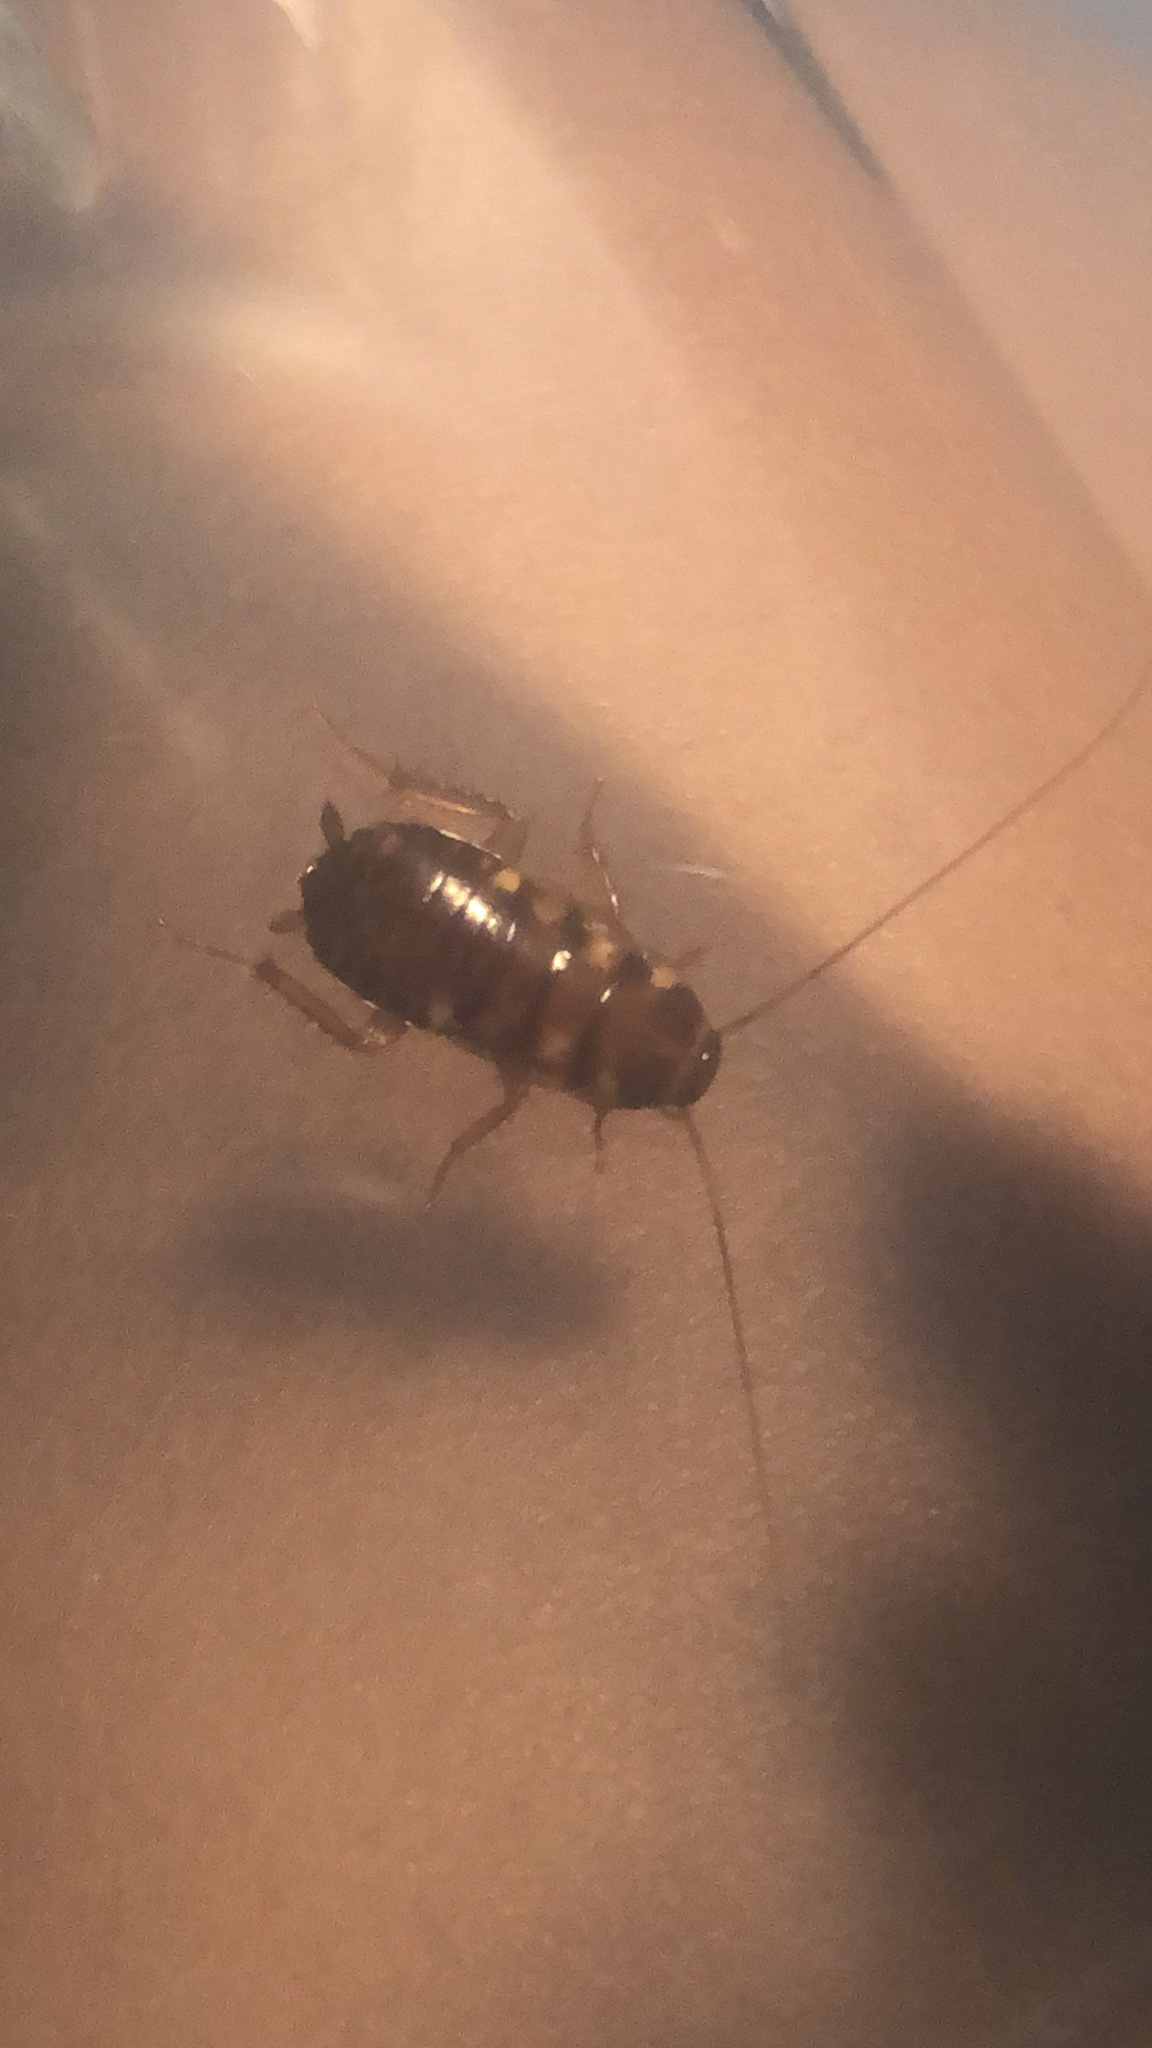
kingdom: Animalia
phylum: Arthropoda
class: Insecta
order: Blattodea
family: Blattidae
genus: Periplaneta
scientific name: Periplaneta australasiae
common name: Australian cockroach
